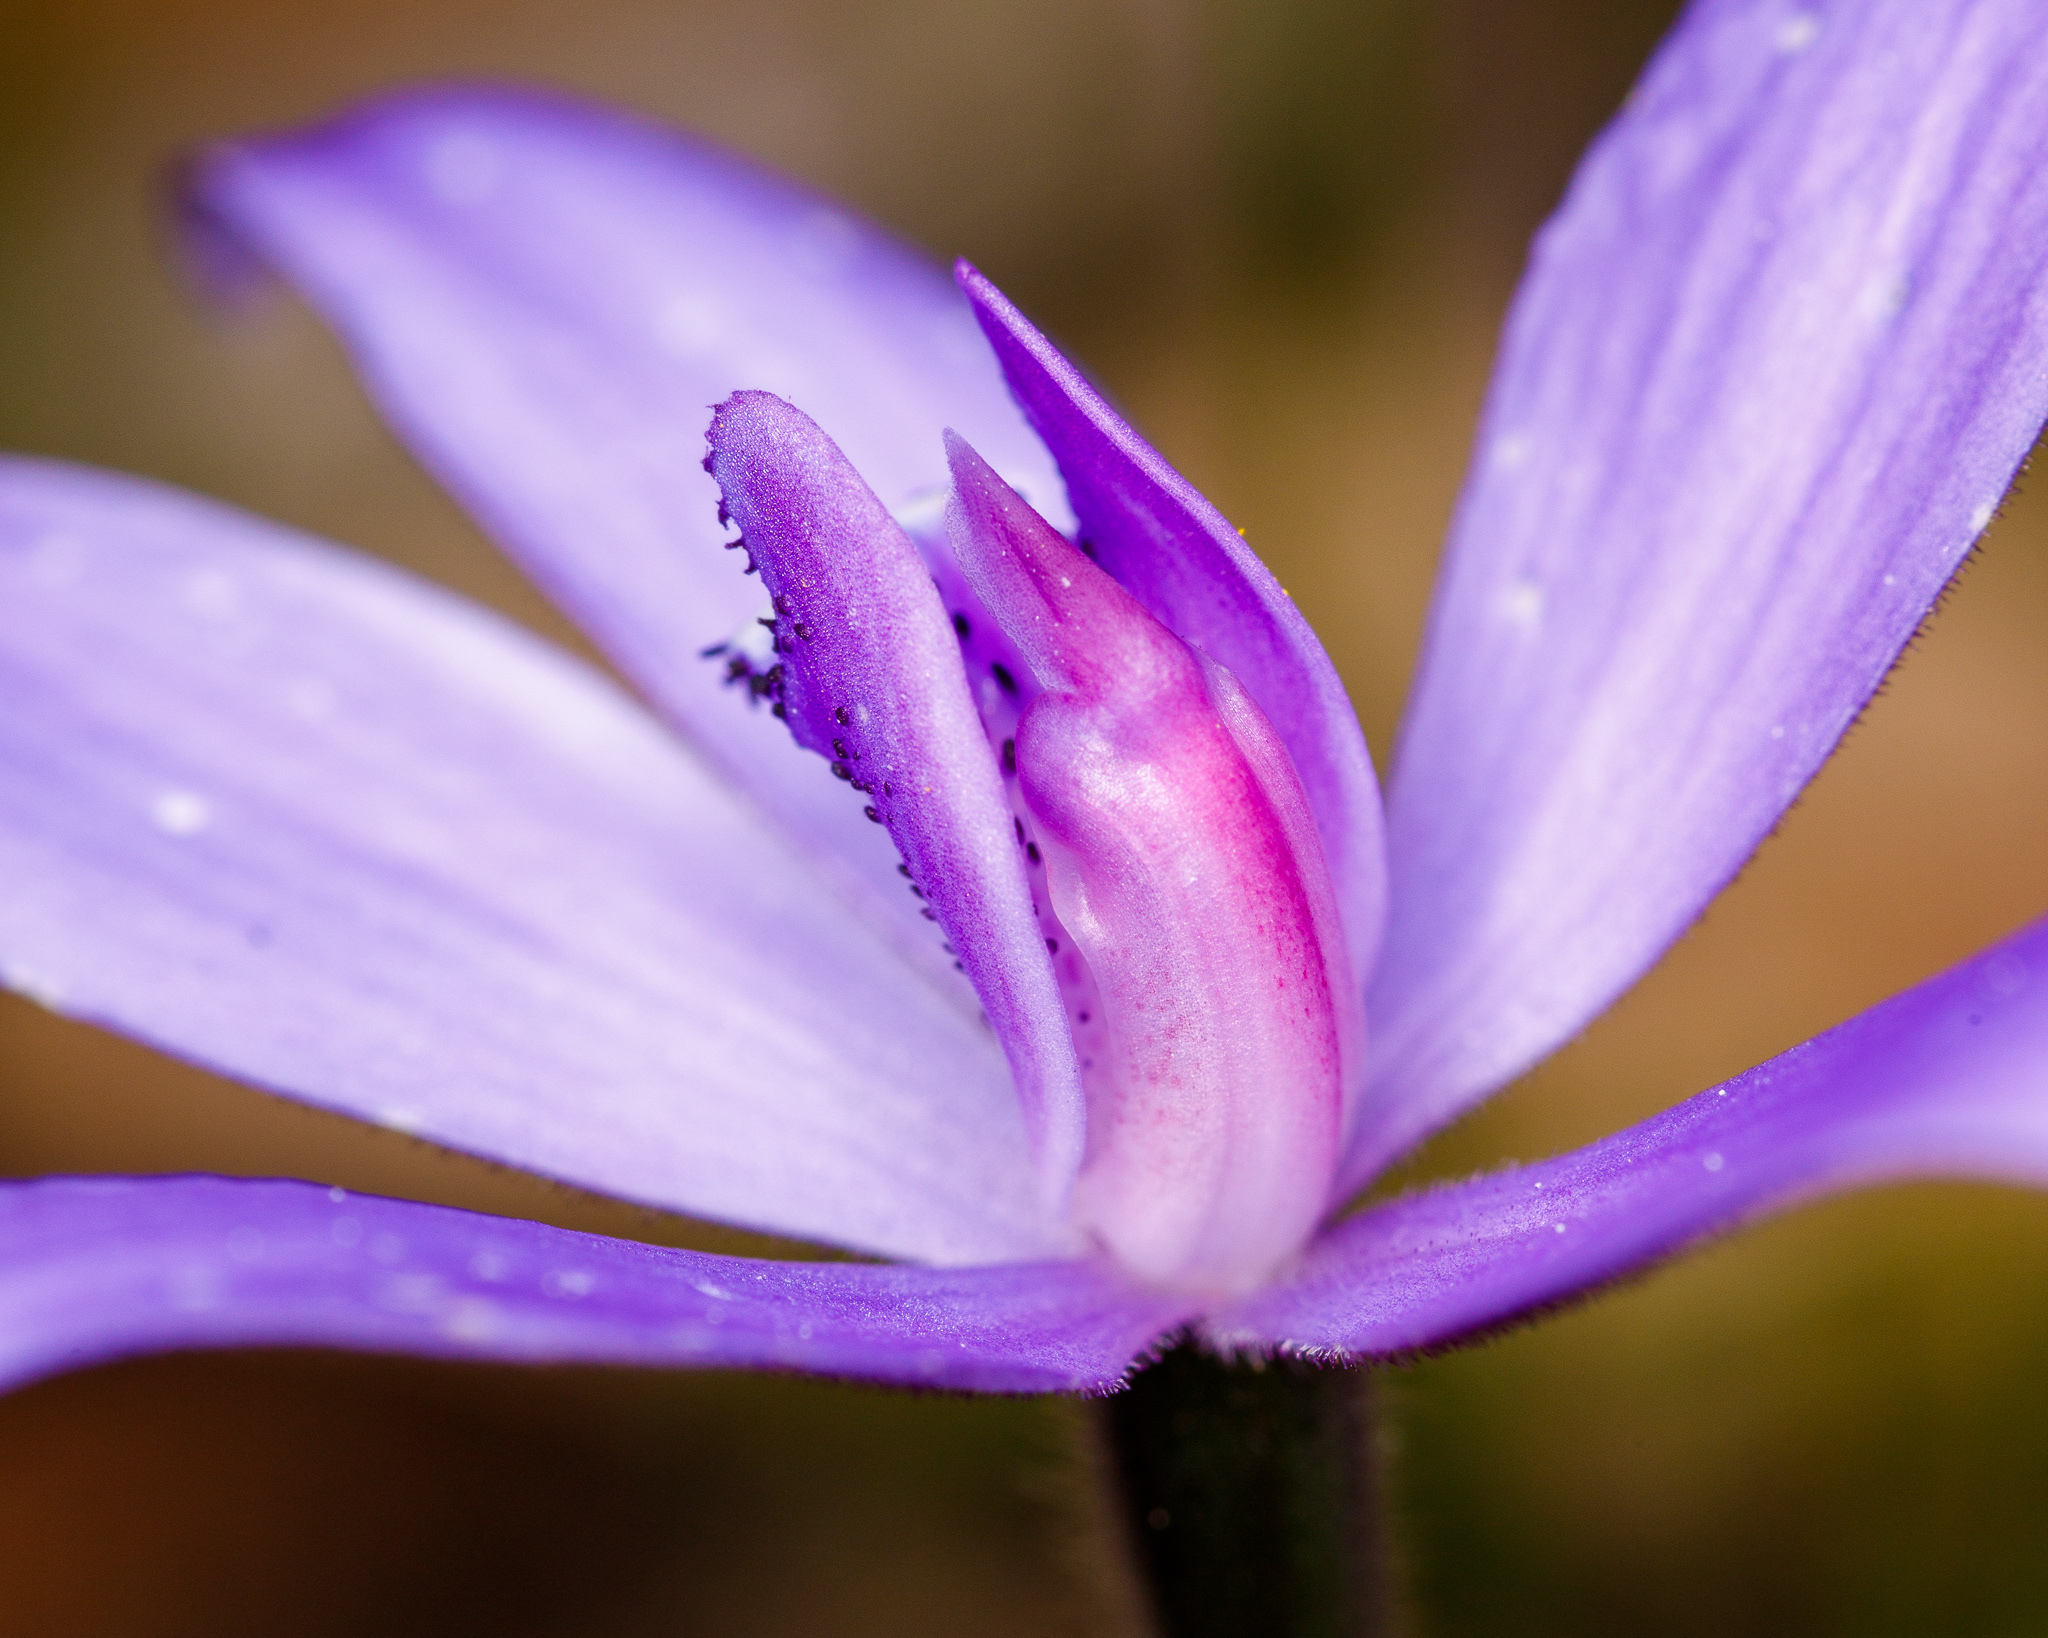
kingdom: Plantae
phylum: Tracheophyta
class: Liliopsida
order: Asparagales
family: Orchidaceae
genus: Caladenia
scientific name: Caladenia sericea
